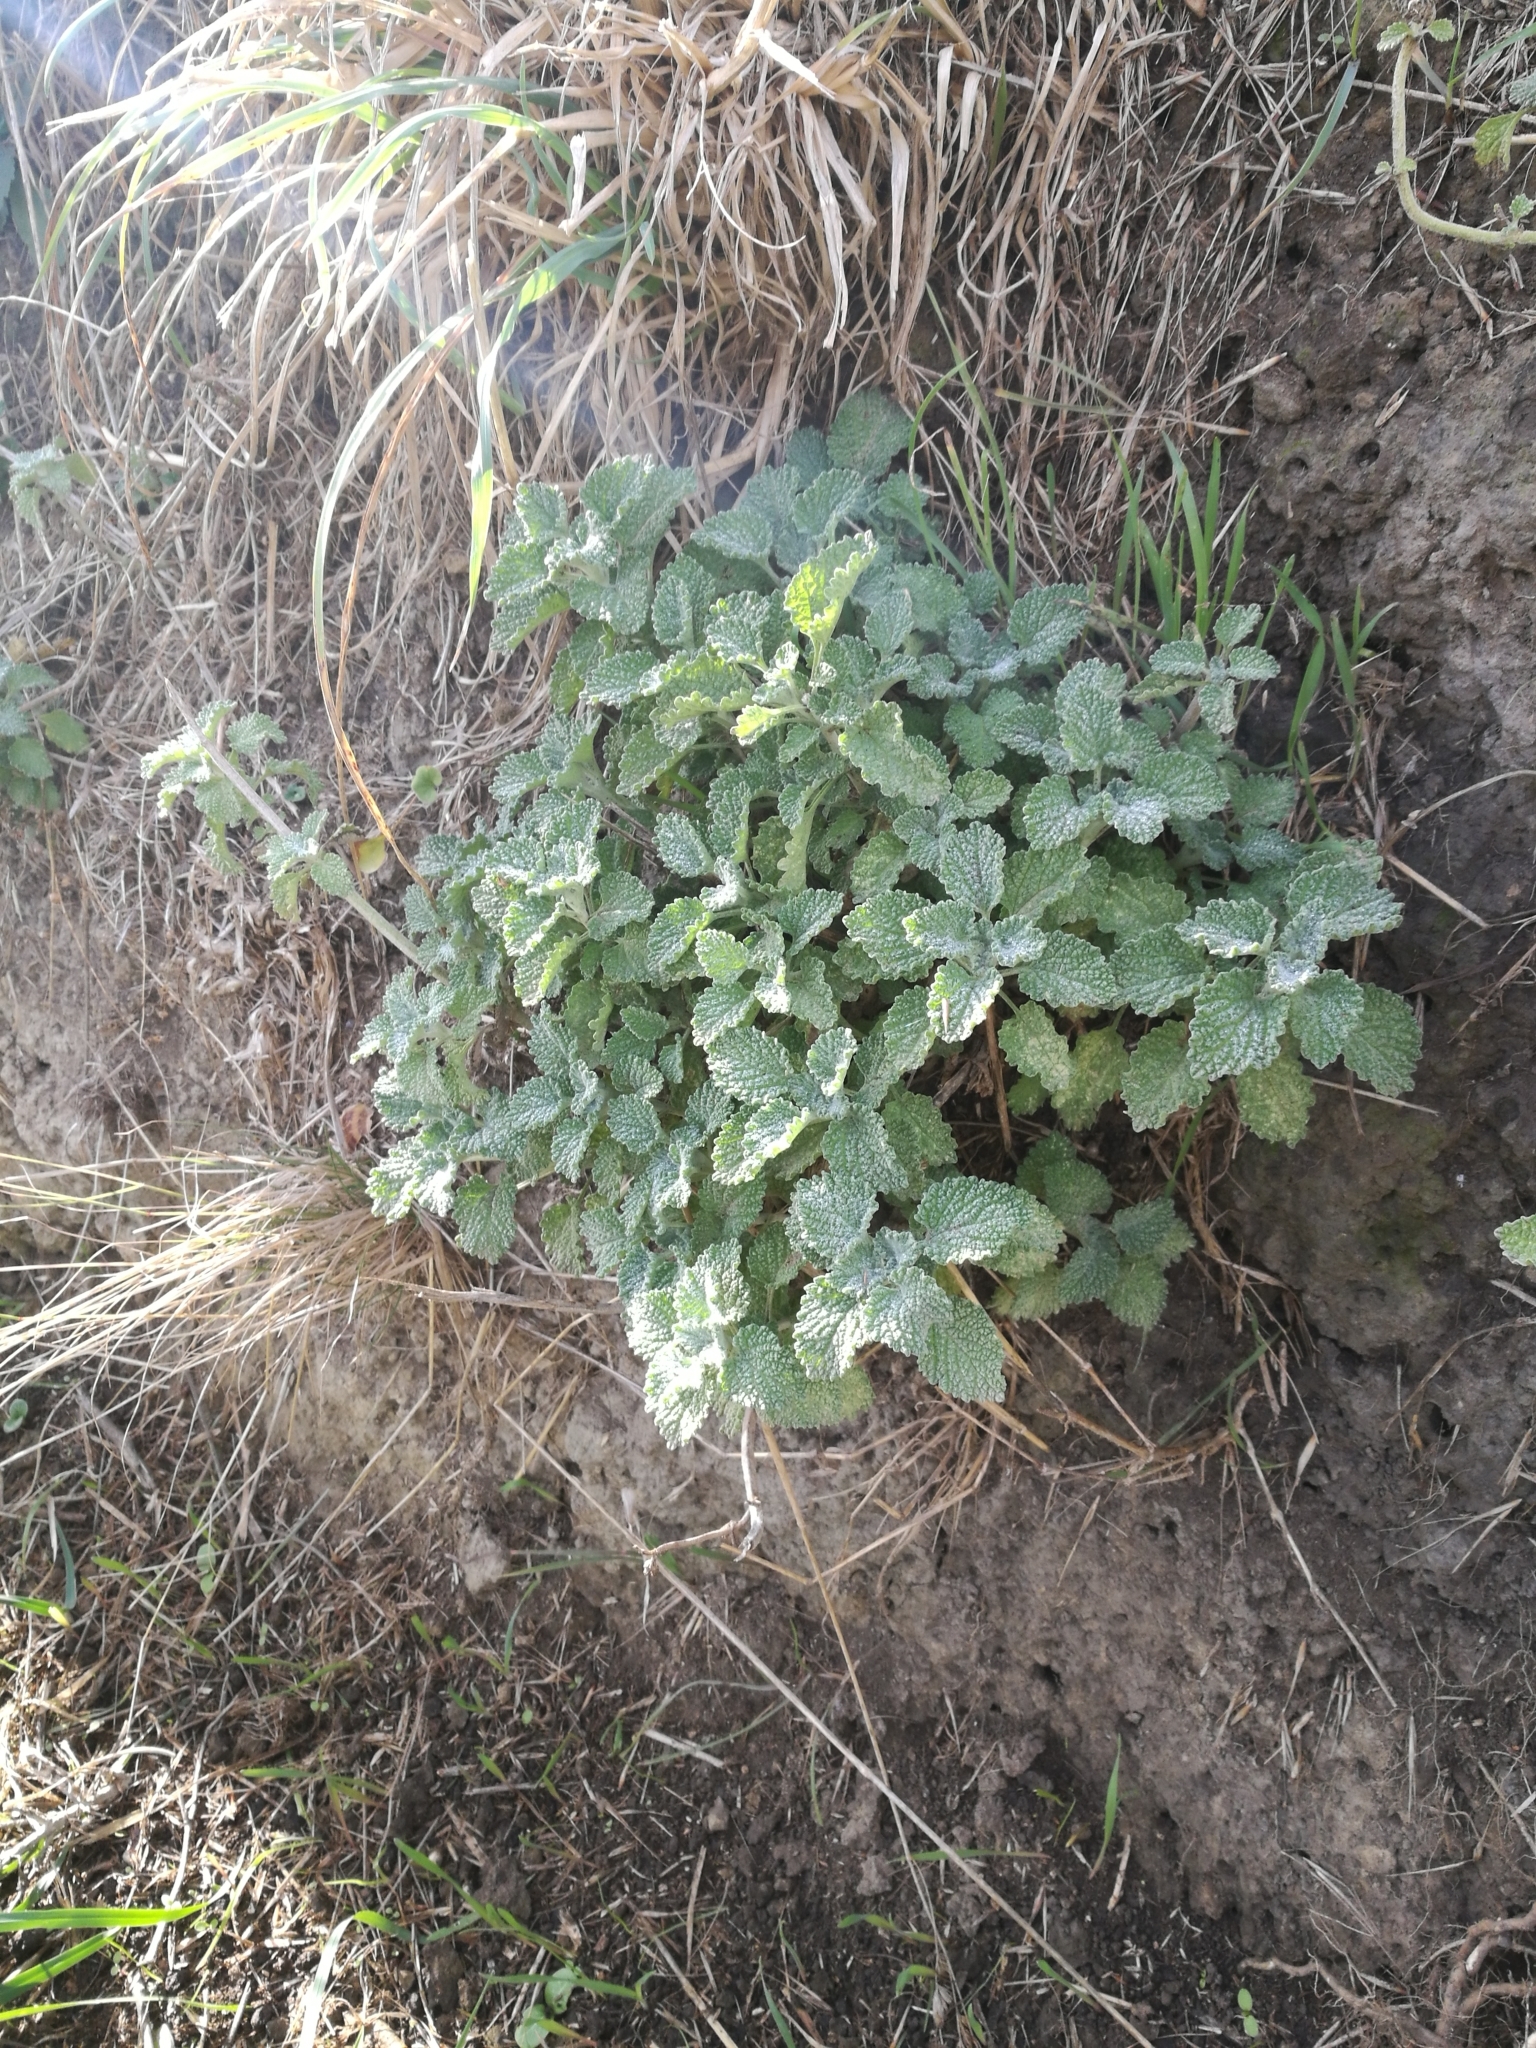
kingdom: Plantae
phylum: Tracheophyta
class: Magnoliopsida
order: Lamiales
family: Lamiaceae
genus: Marrubium
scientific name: Marrubium vulgare
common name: Horehound
